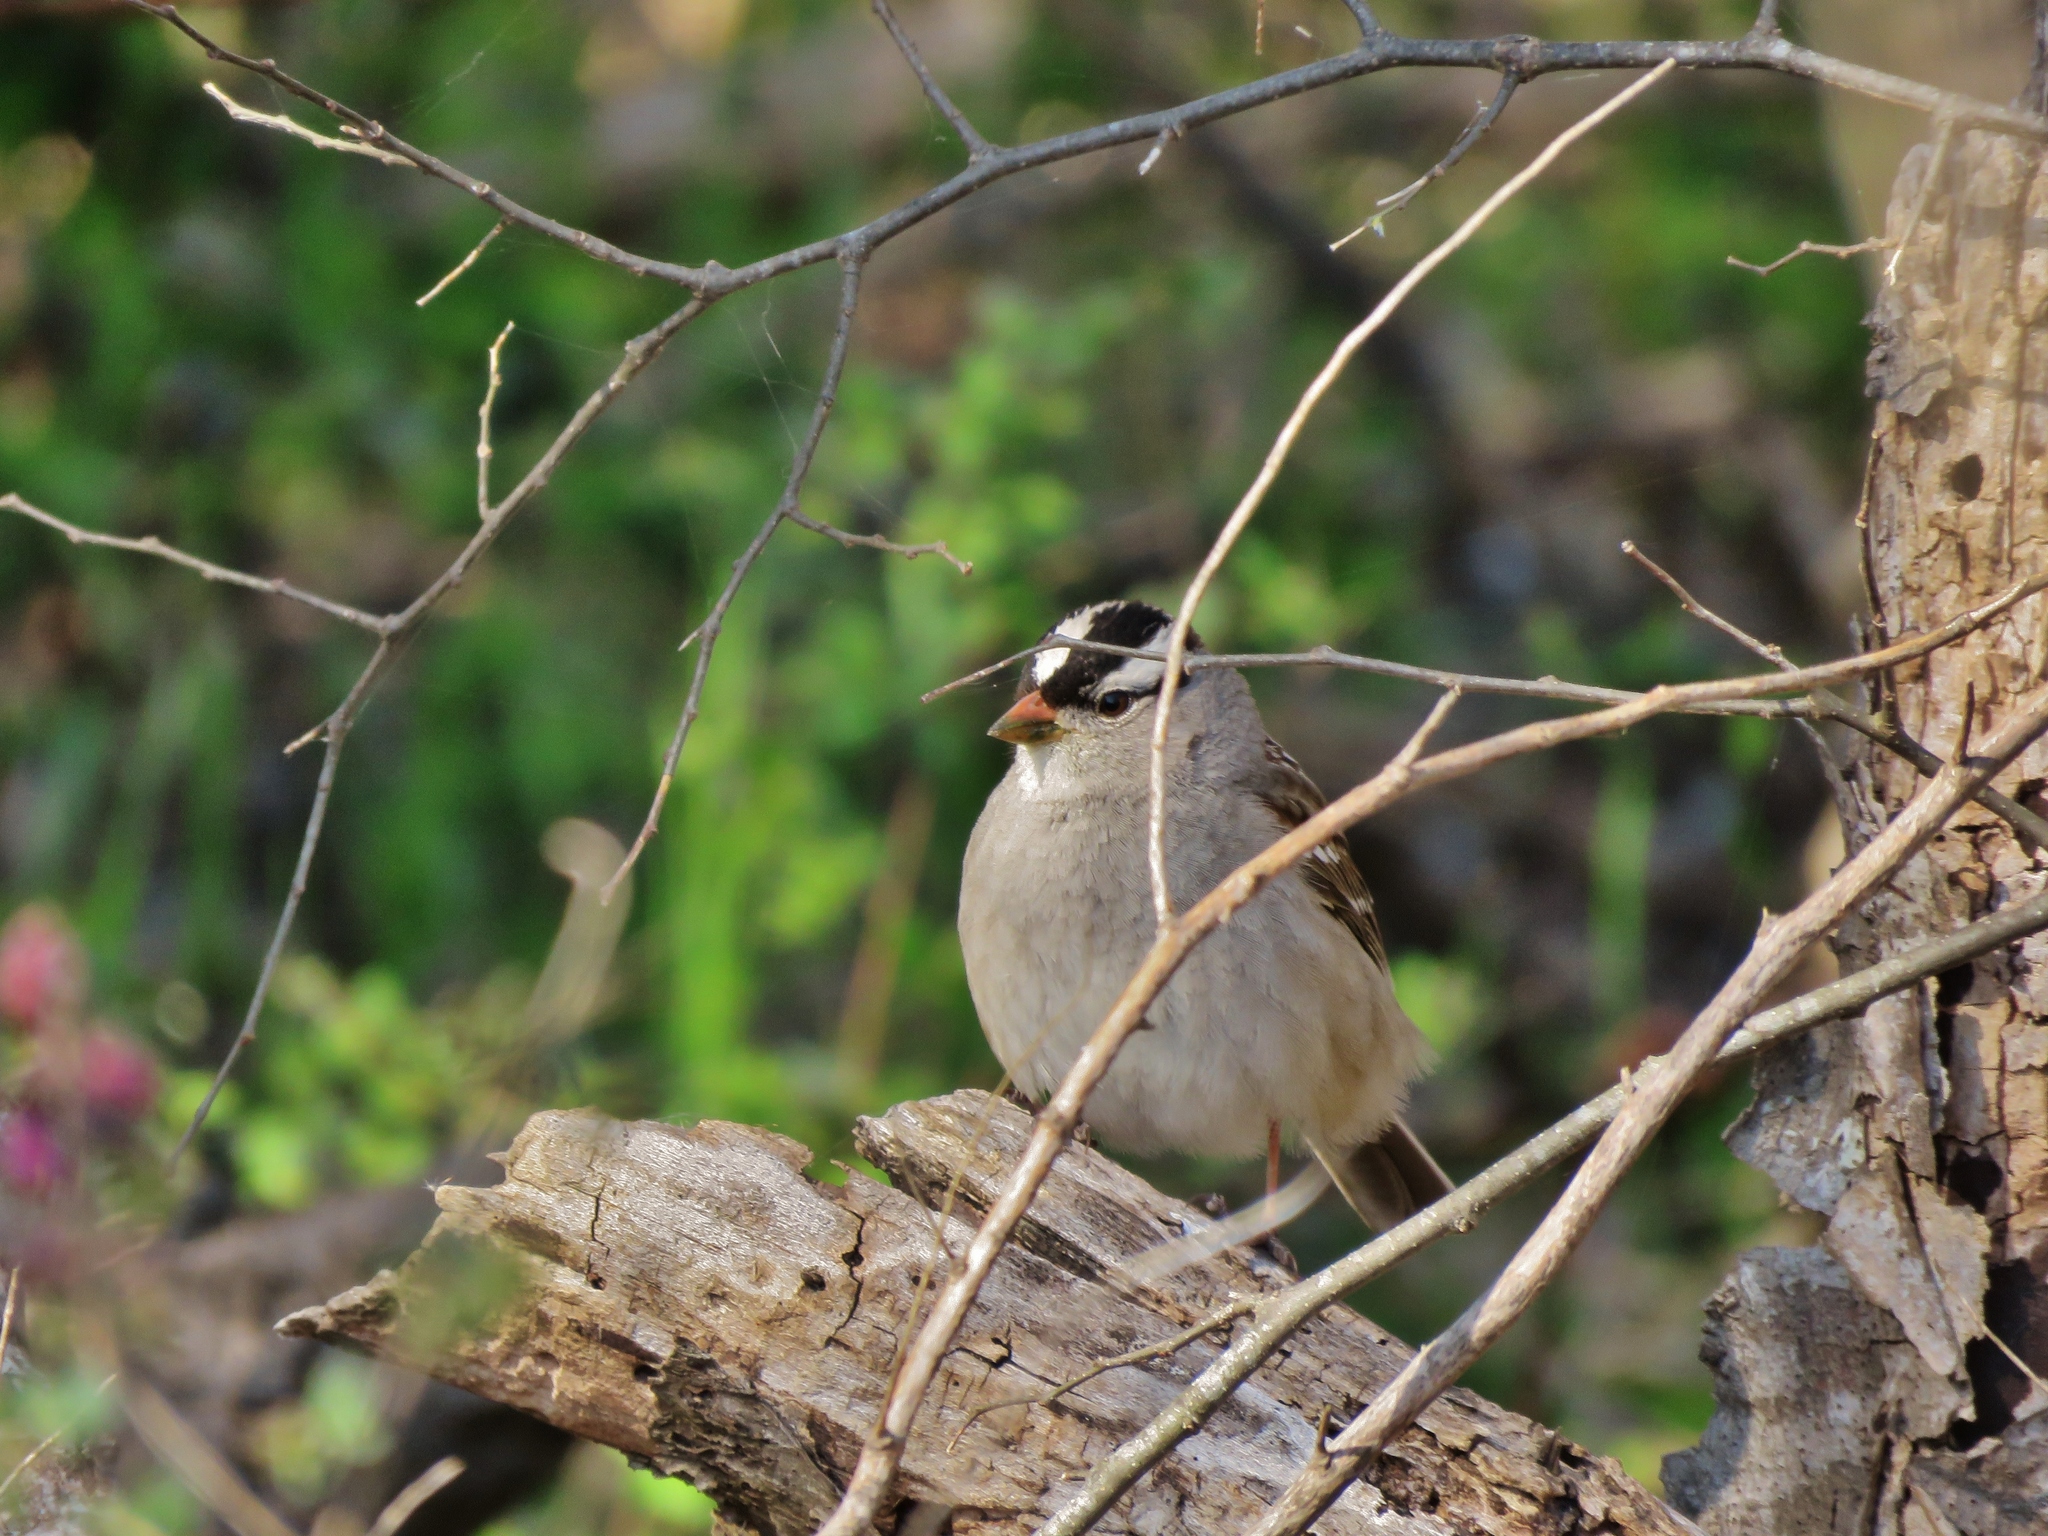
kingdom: Animalia
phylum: Chordata
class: Aves
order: Passeriformes
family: Passerellidae
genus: Zonotrichia
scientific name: Zonotrichia leucophrys
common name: White-crowned sparrow
